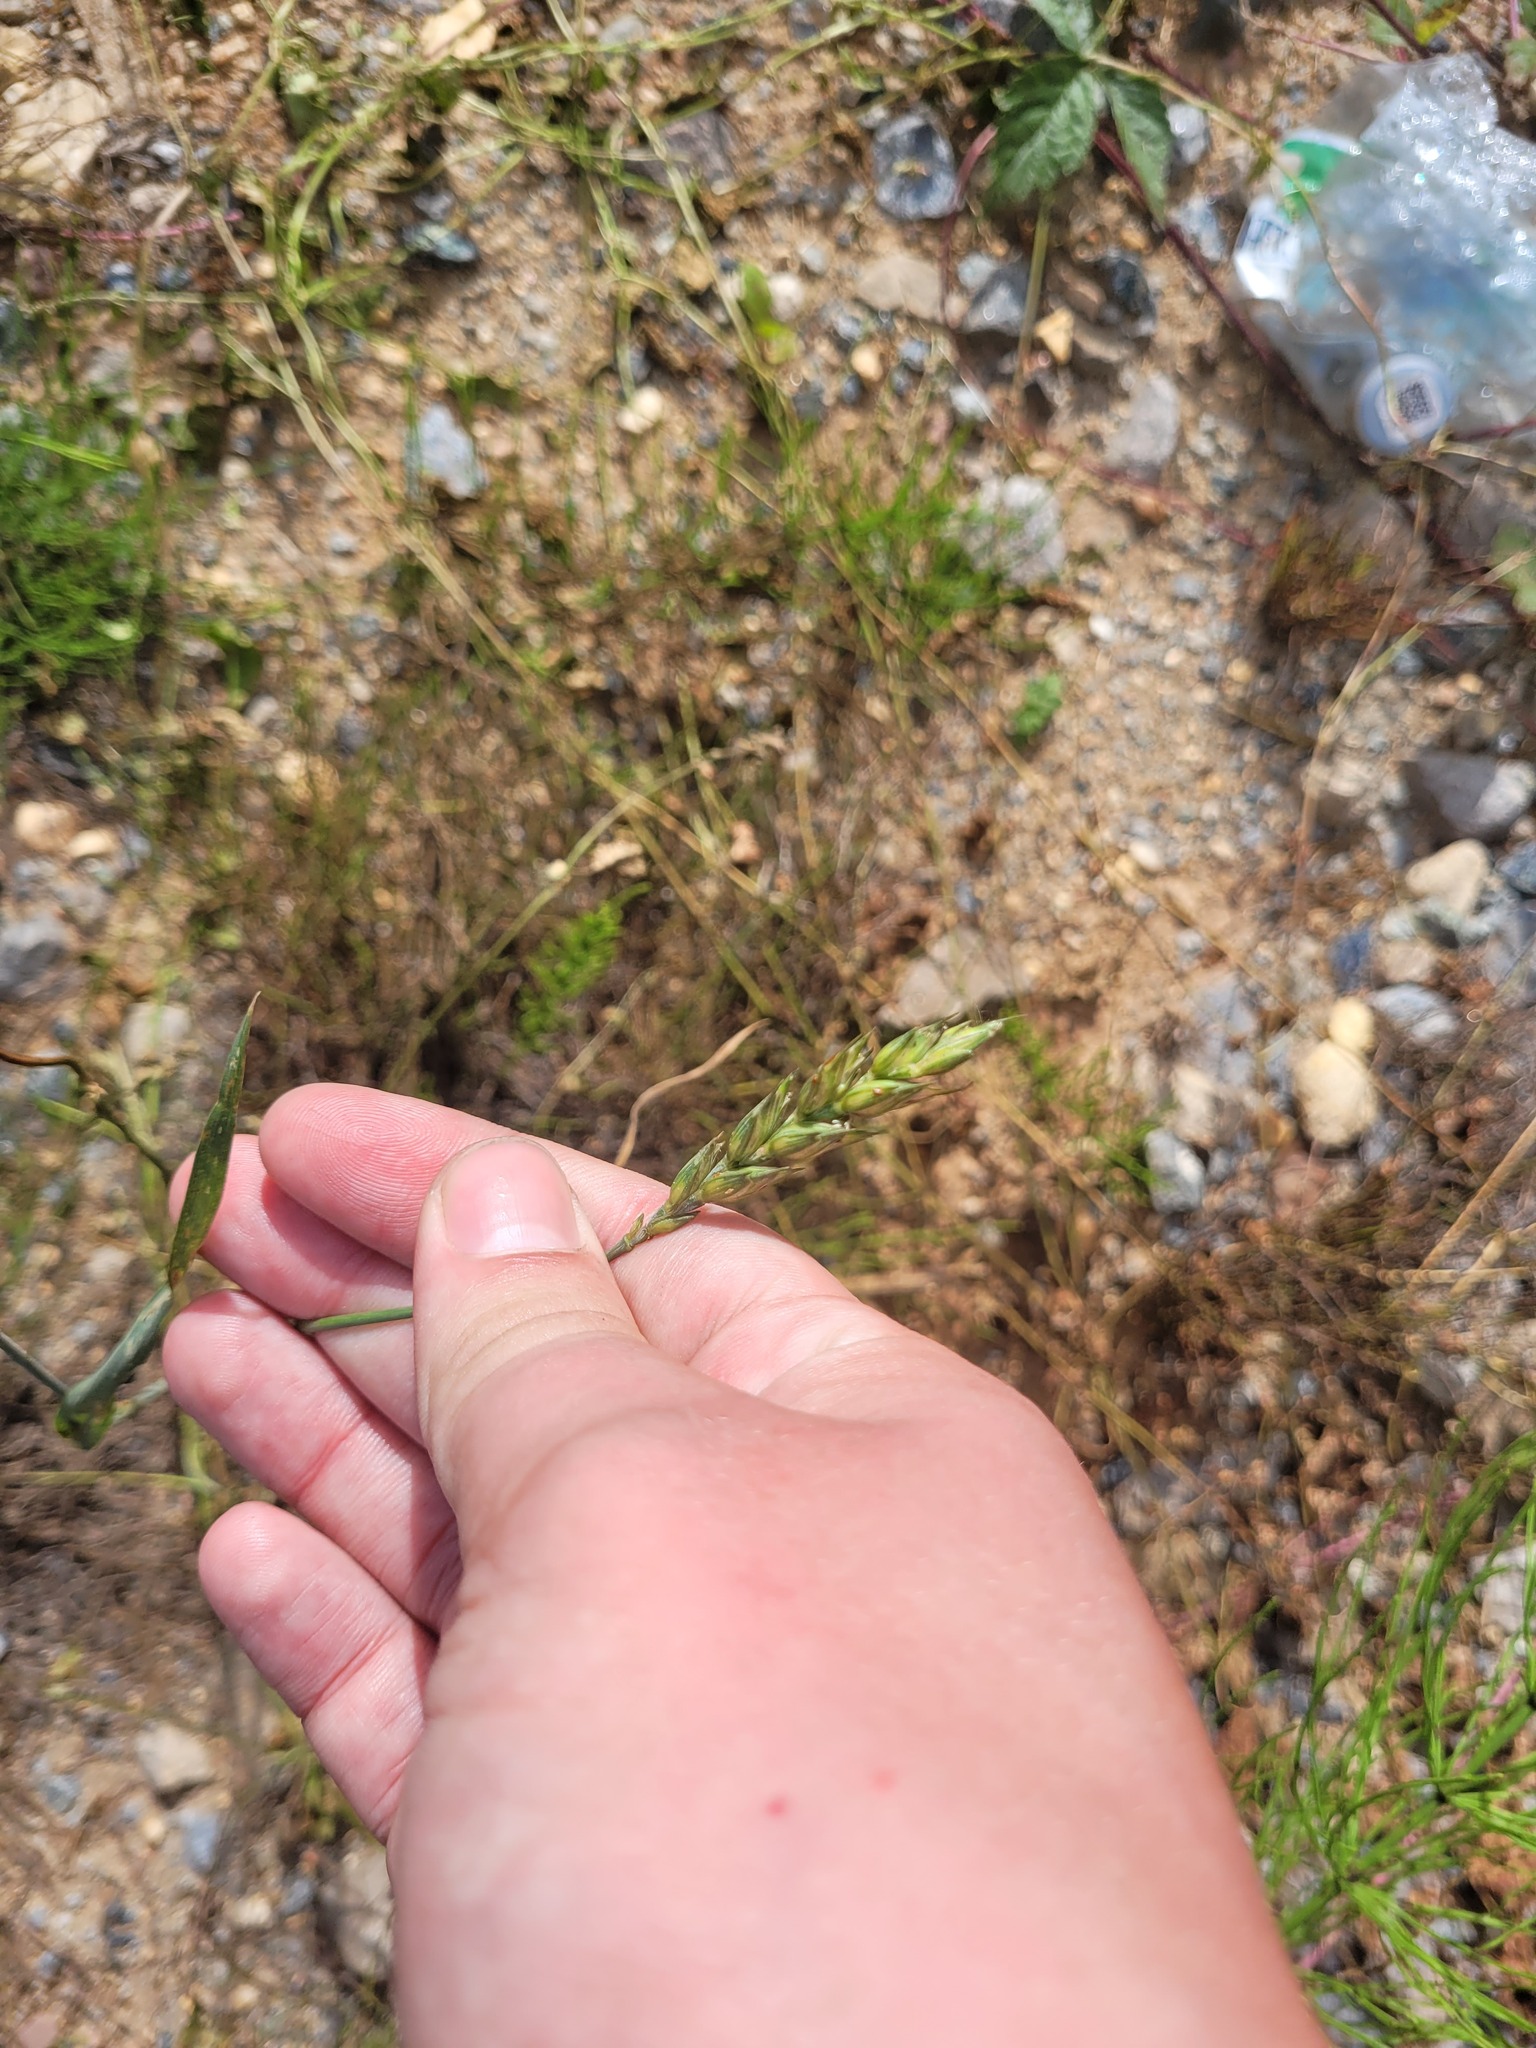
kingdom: Plantae
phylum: Tracheophyta
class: Liliopsida
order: Poales
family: Poaceae
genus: Triticum
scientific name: Triticum aestivum
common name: Common wheat
